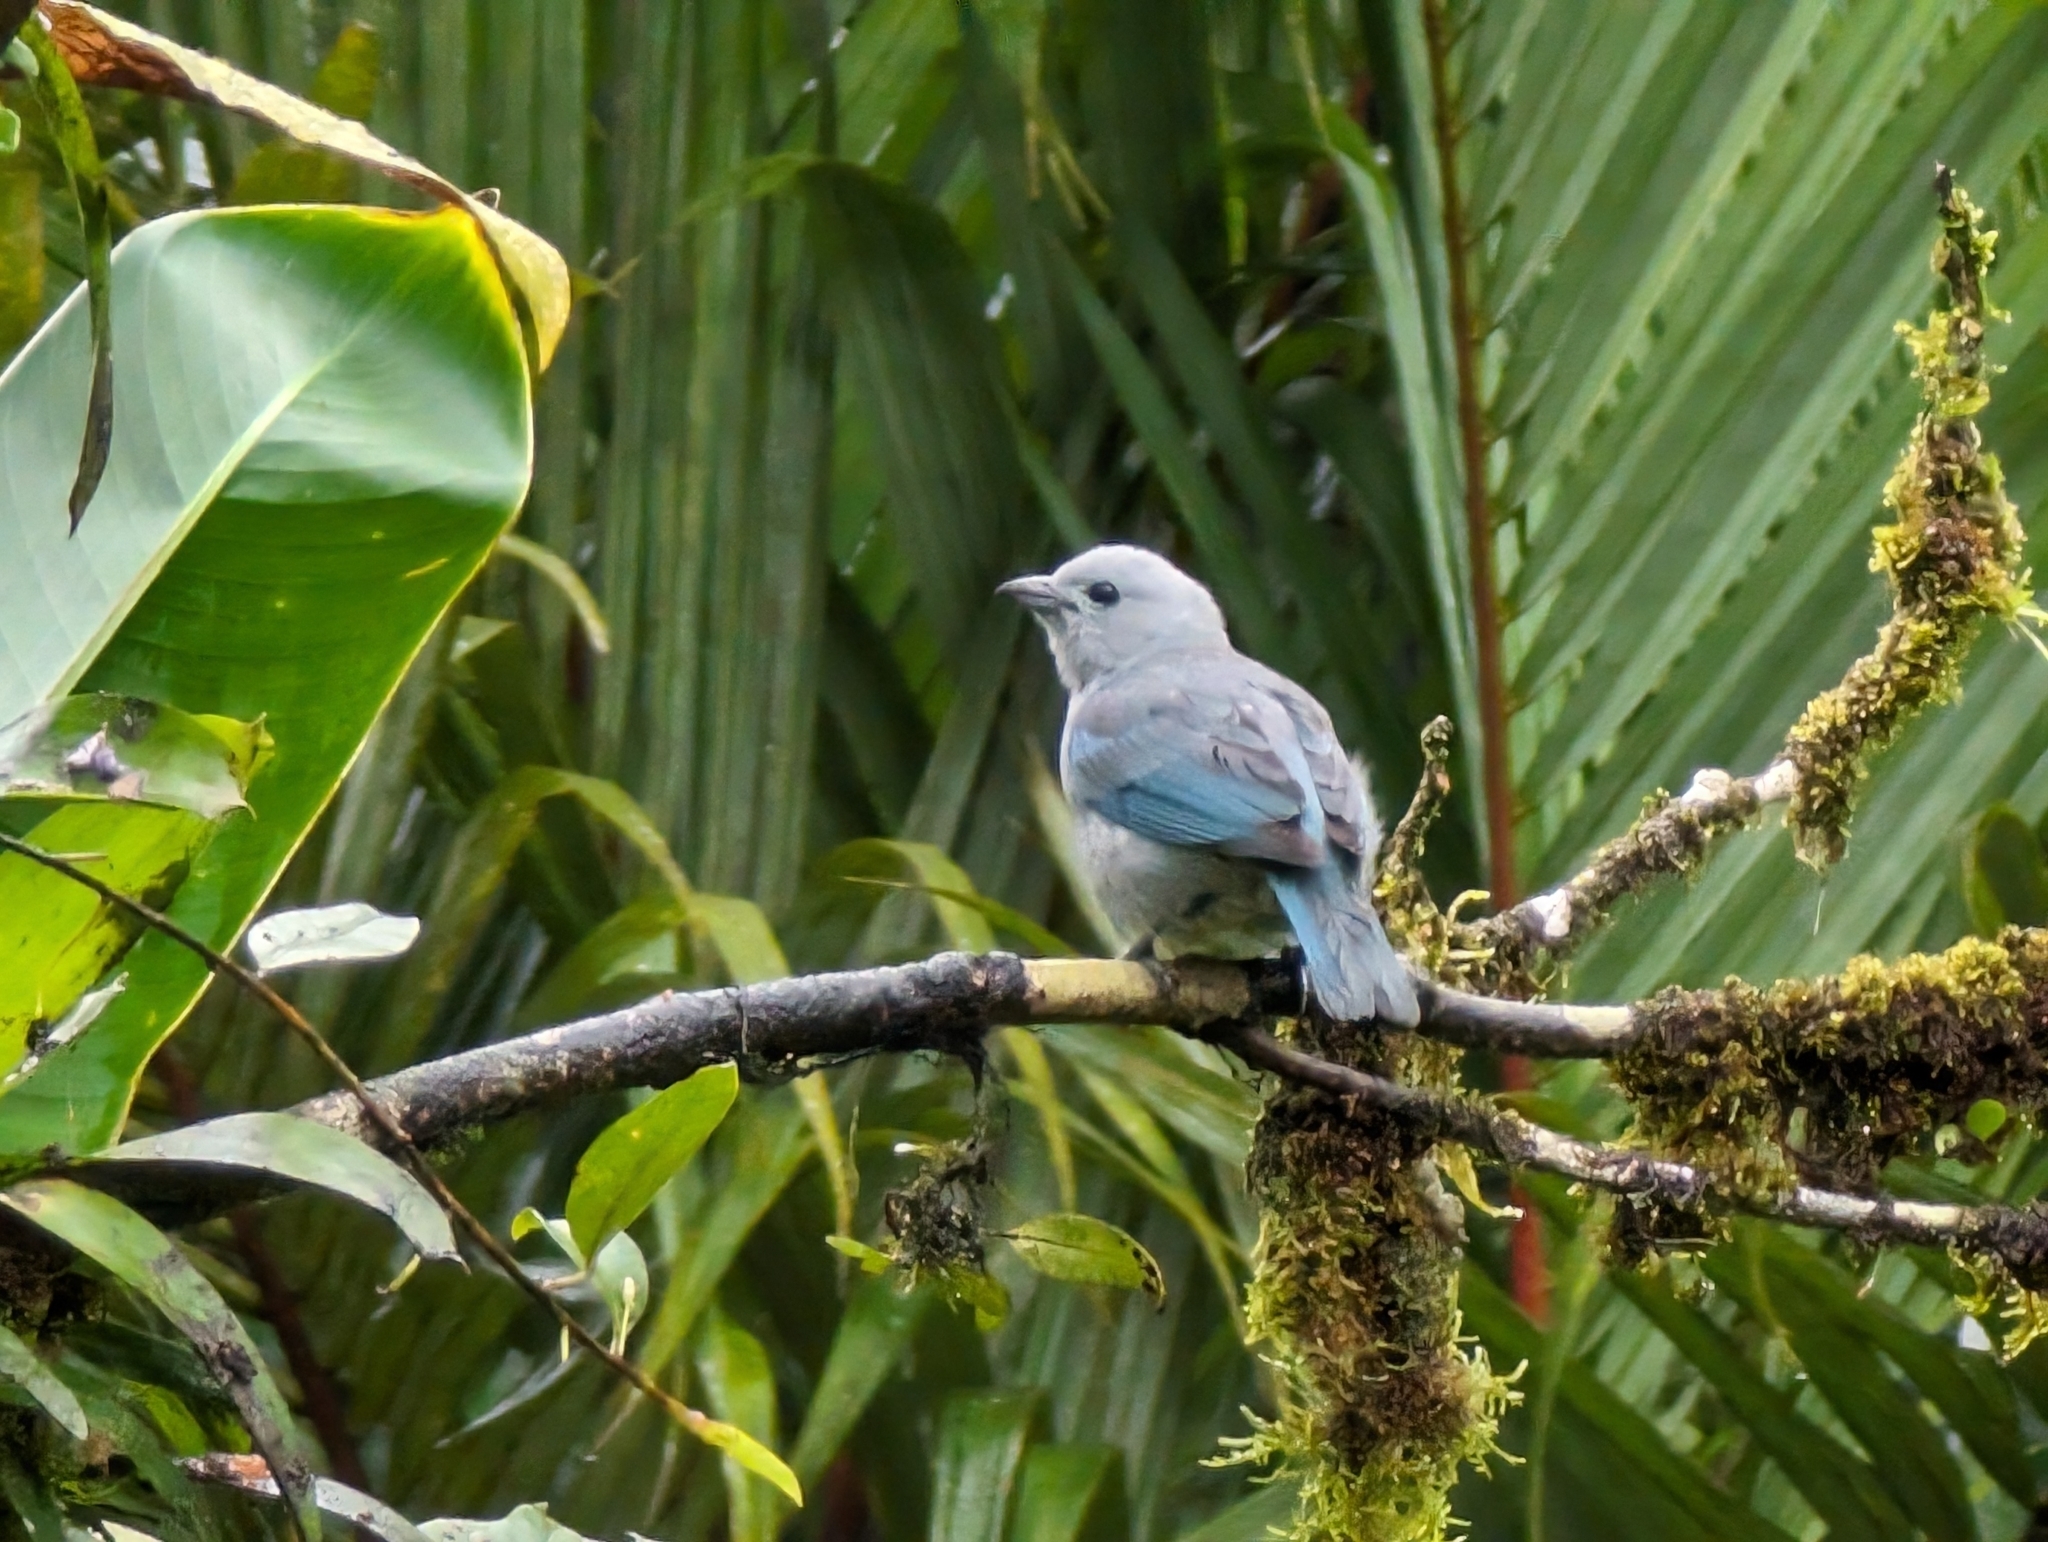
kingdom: Animalia
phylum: Chordata
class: Aves
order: Passeriformes
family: Thraupidae
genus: Thraupis
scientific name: Thraupis episcopus
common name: Blue-grey tanager
